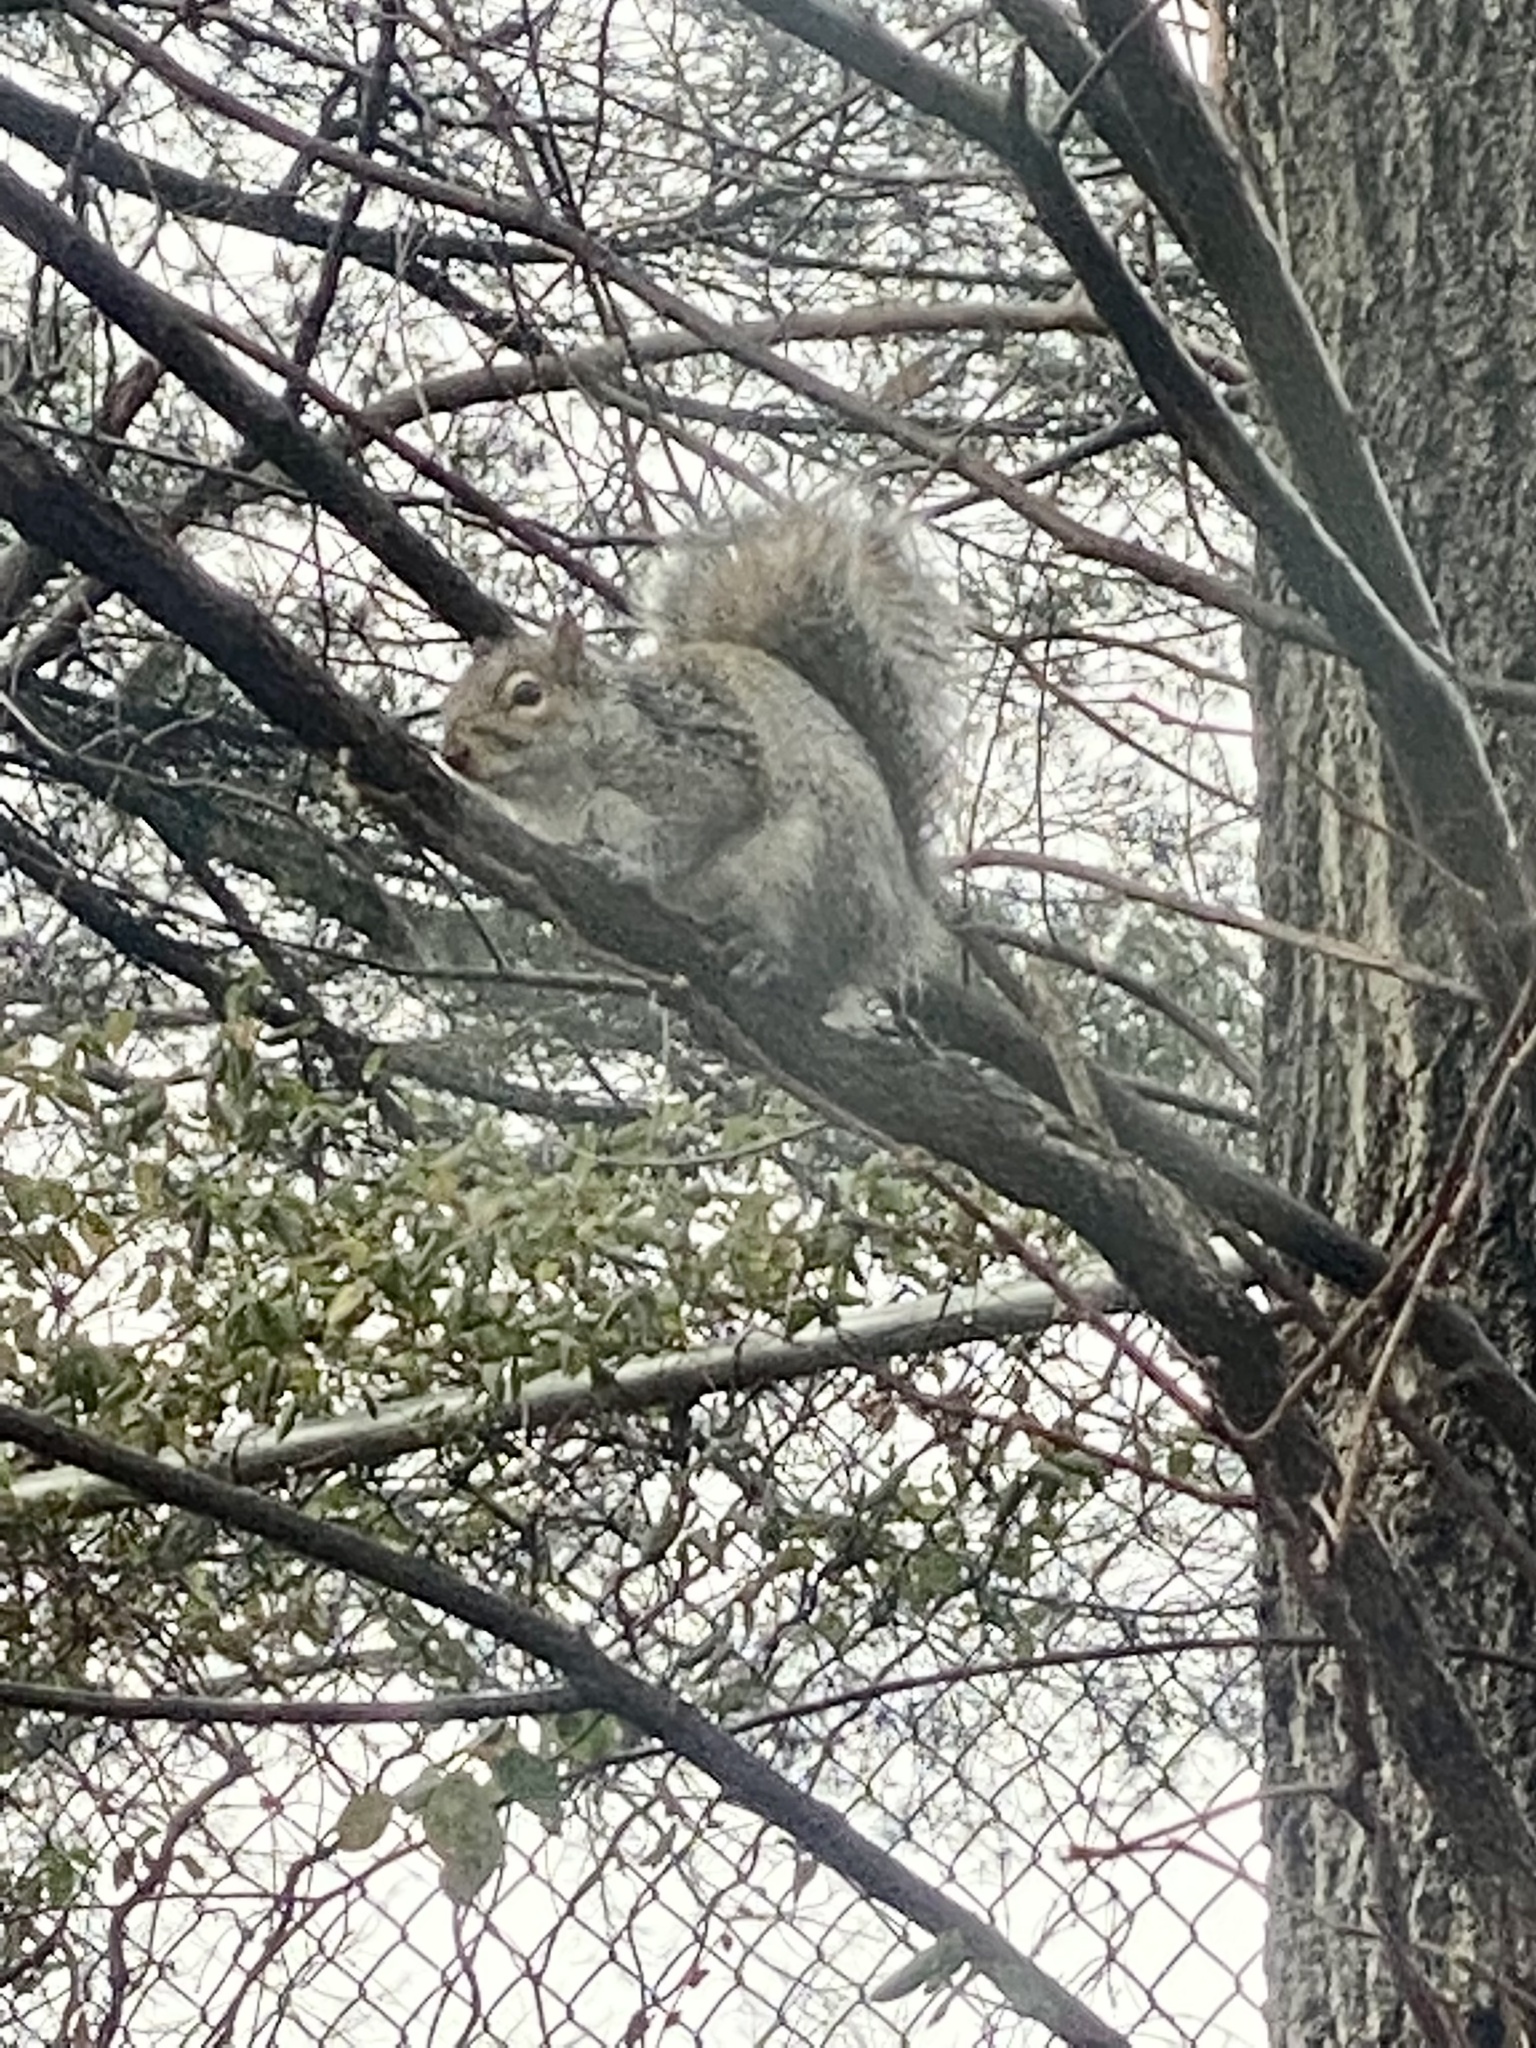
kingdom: Animalia
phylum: Chordata
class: Mammalia
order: Rodentia
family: Sciuridae
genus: Sciurus
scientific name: Sciurus carolinensis
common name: Eastern gray squirrel
